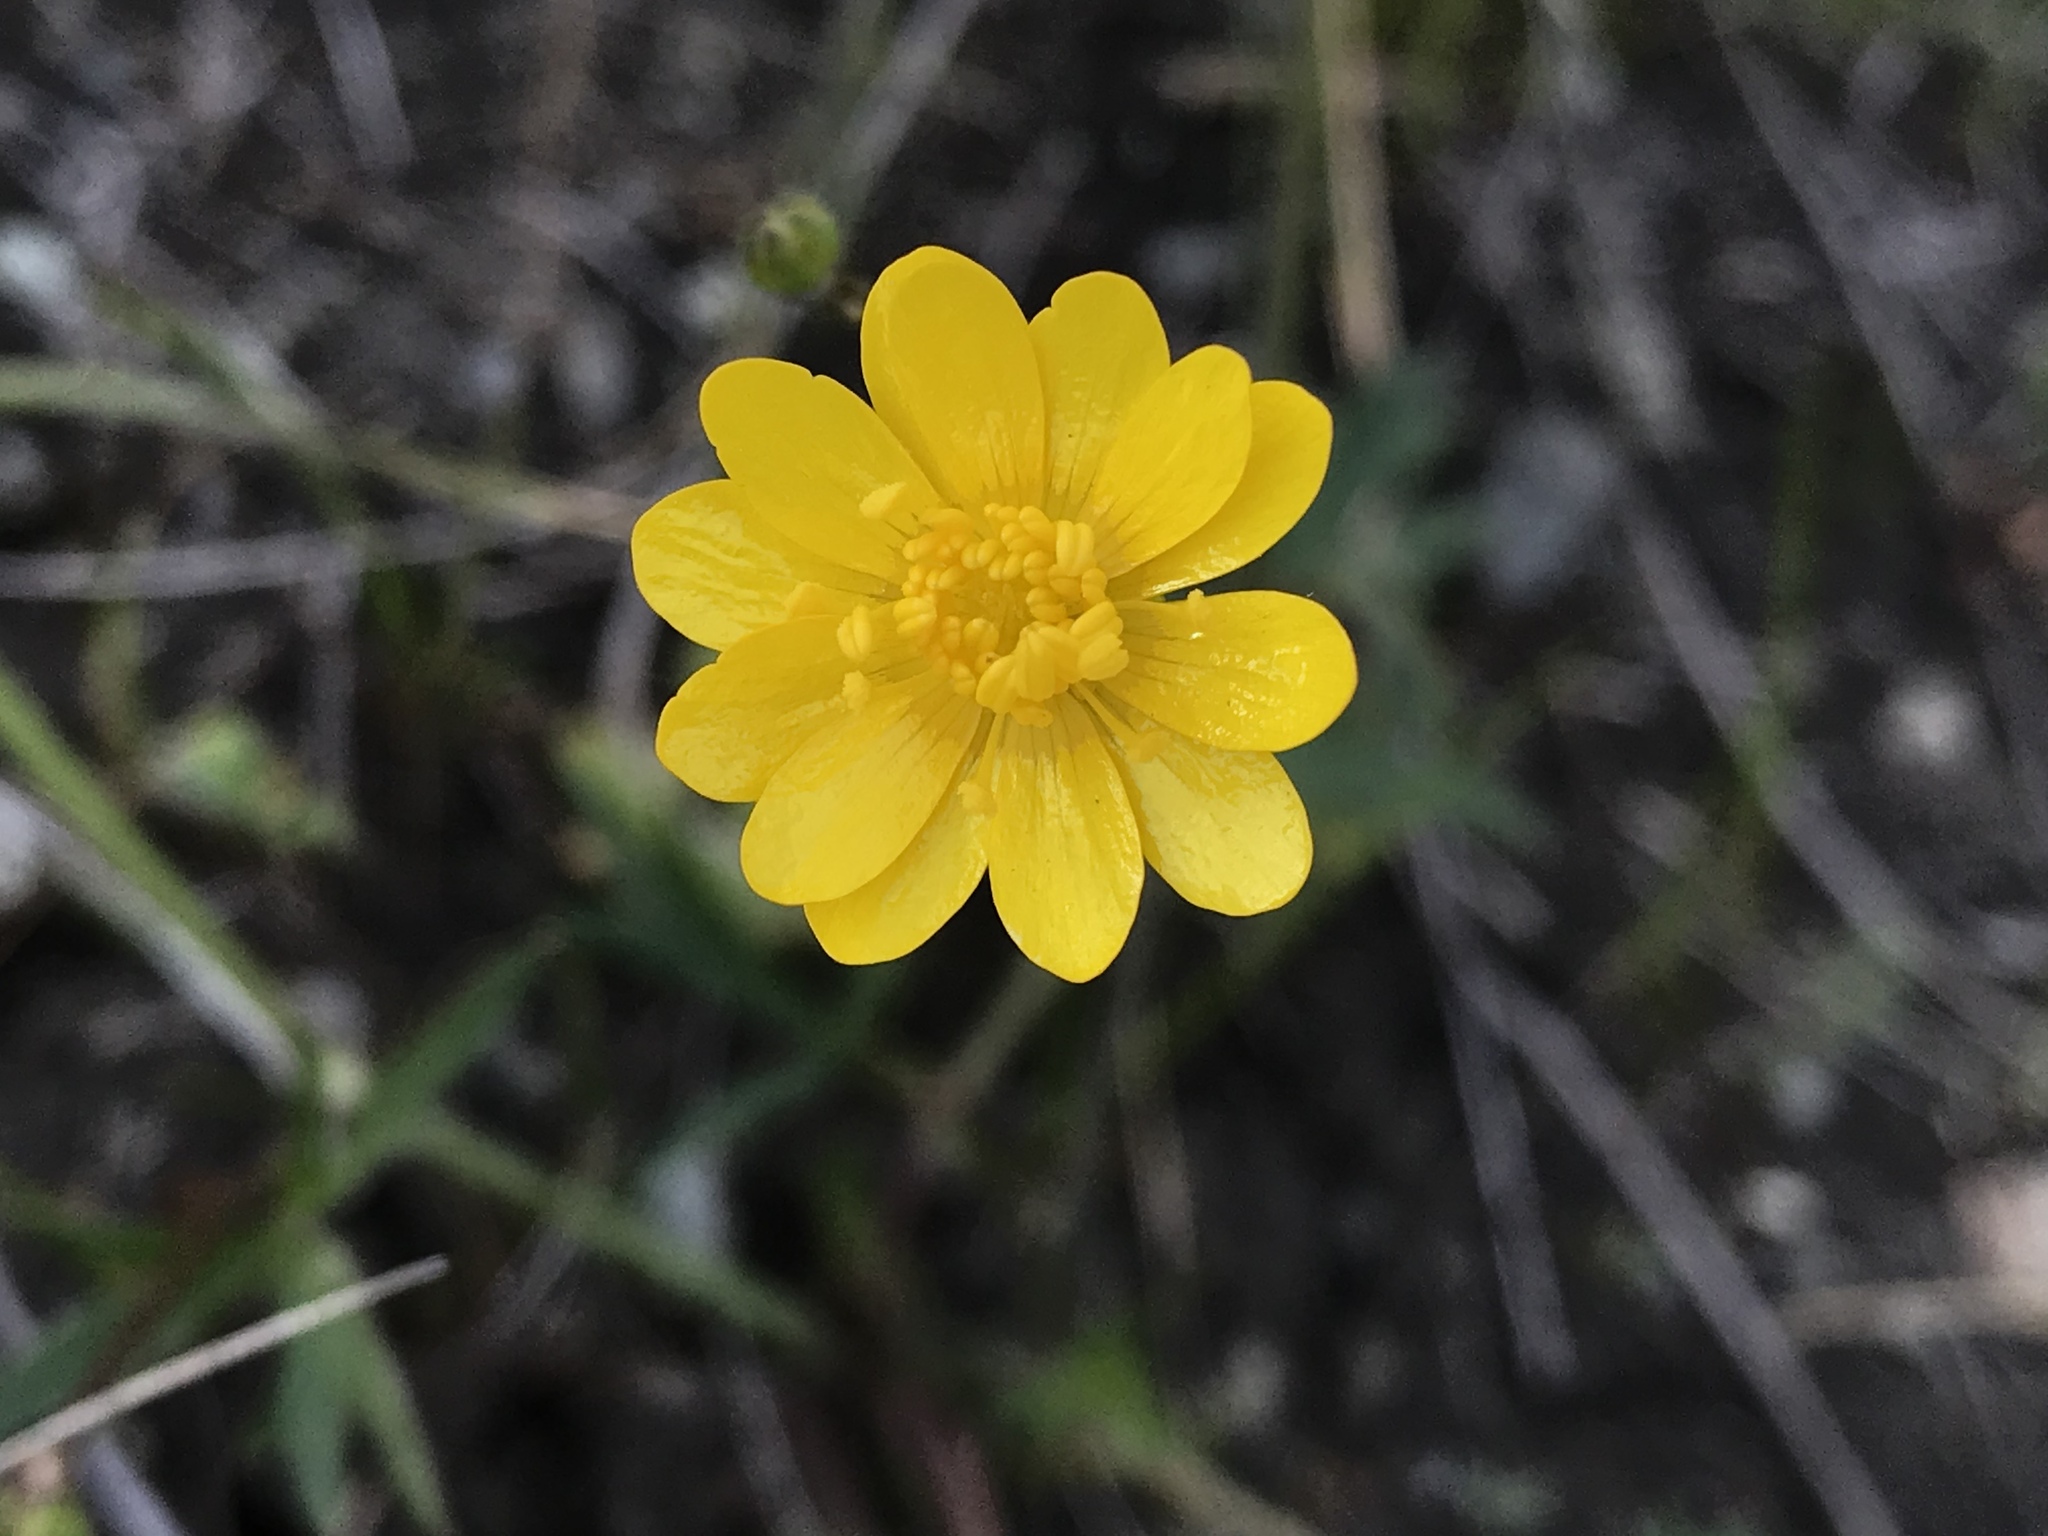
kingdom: Plantae
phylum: Tracheophyta
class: Magnoliopsida
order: Ranunculales
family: Ranunculaceae
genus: Ranunculus
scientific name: Ranunculus californicus
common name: California buttercup
